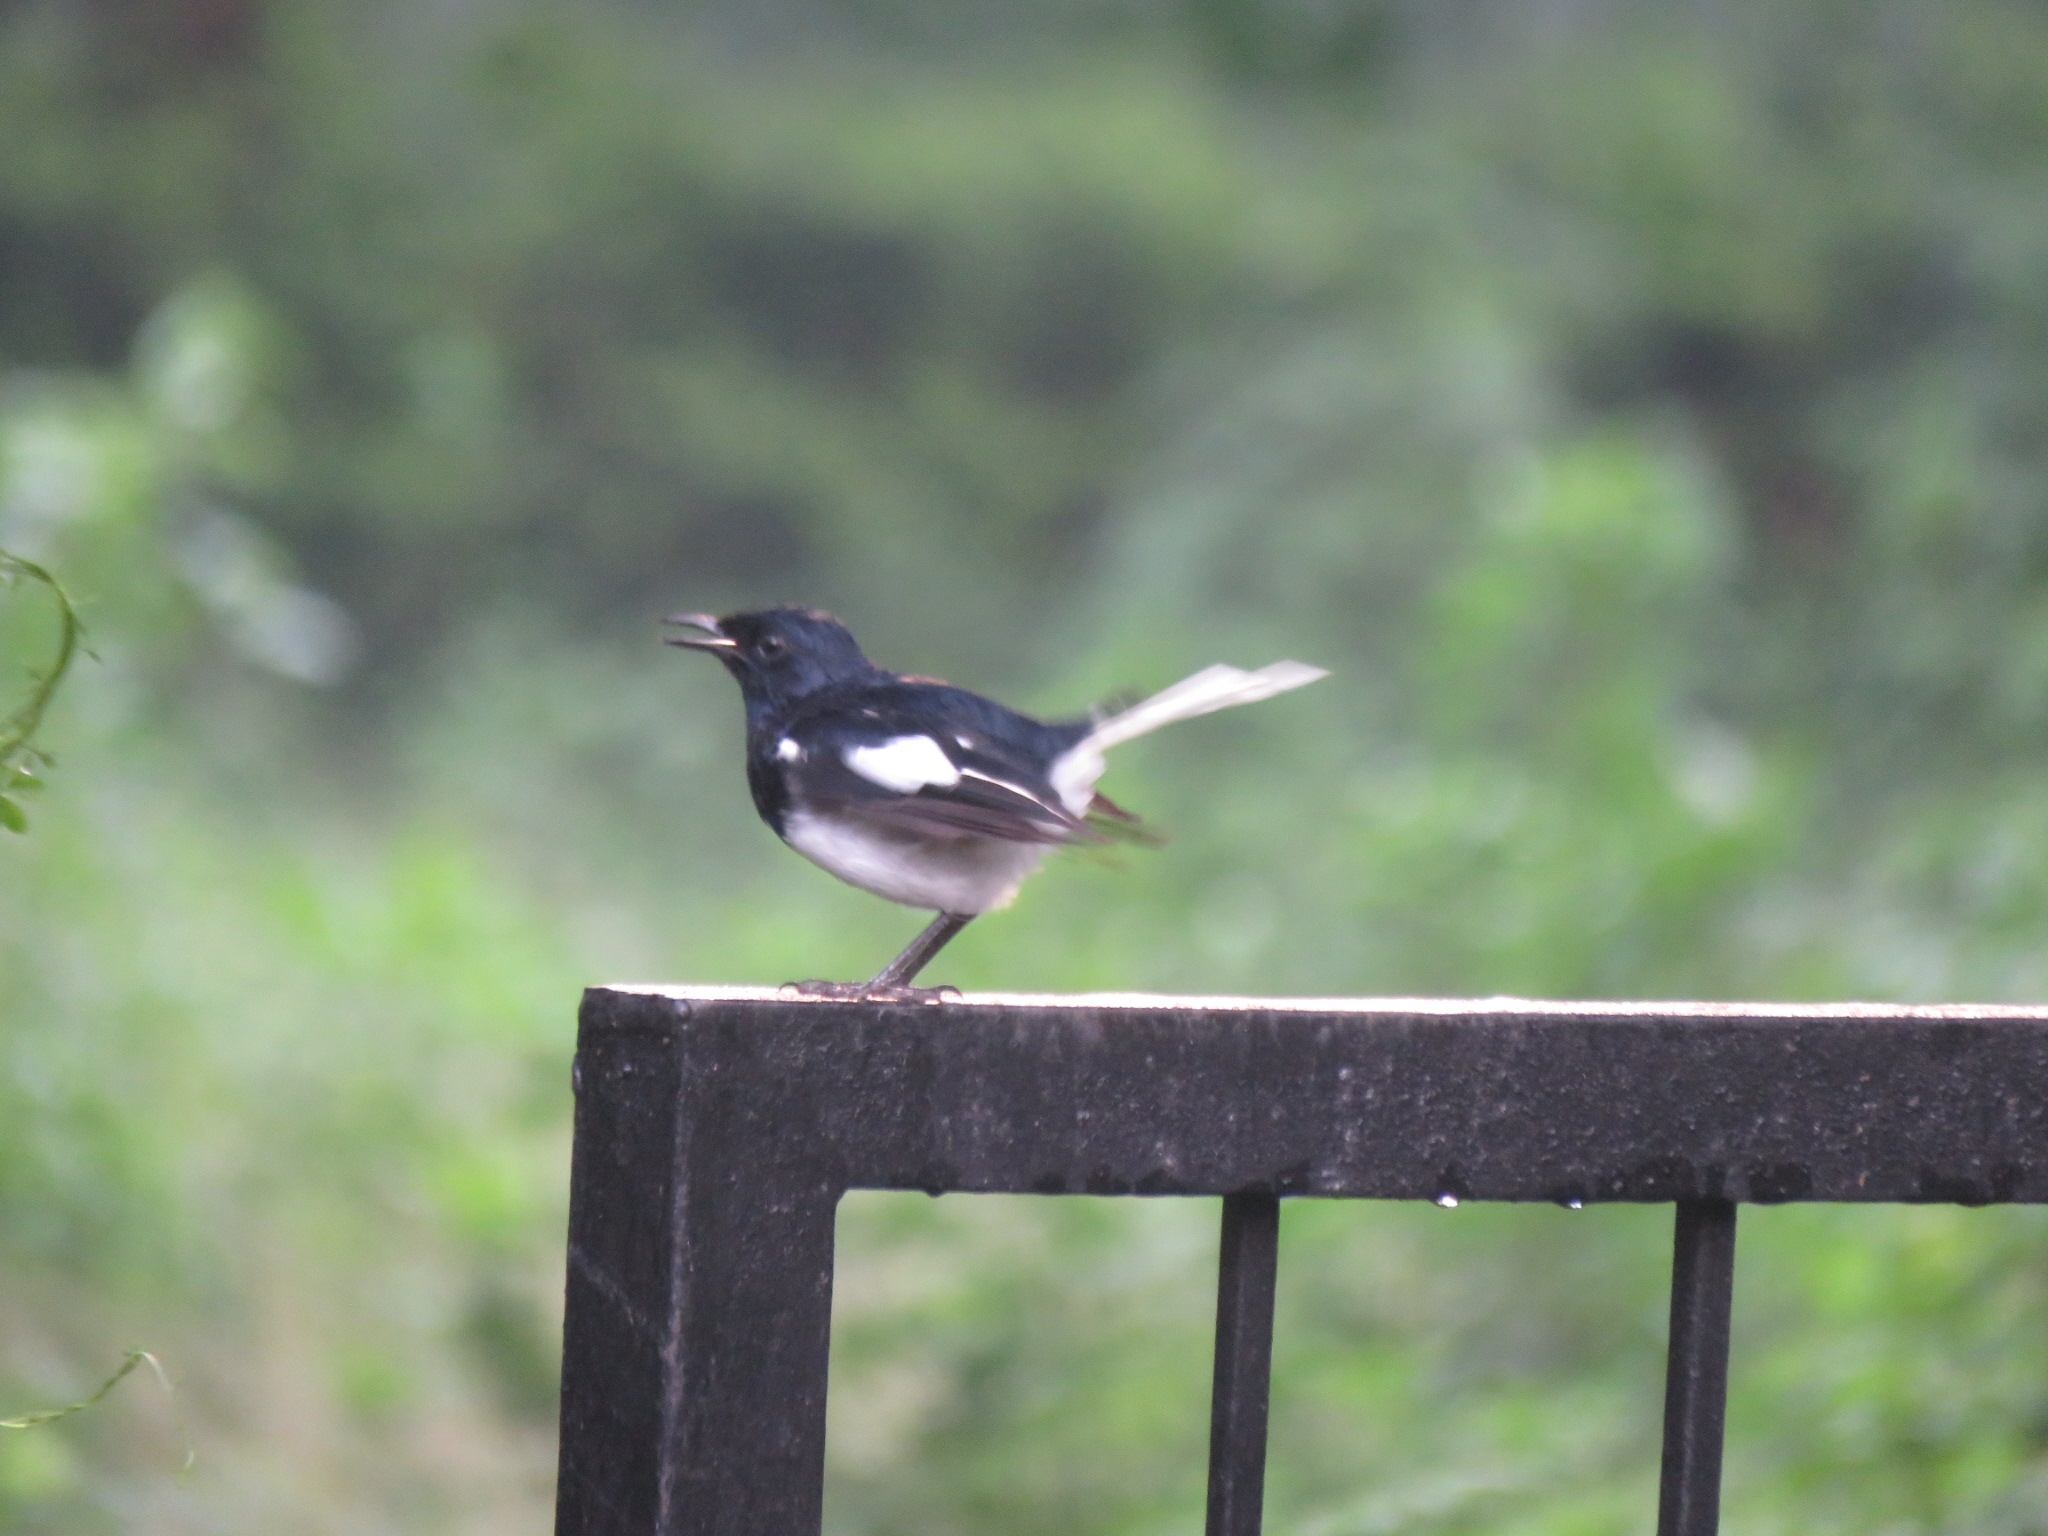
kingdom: Animalia
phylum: Chordata
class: Aves
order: Passeriformes
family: Muscicapidae
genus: Copsychus
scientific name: Copsychus saularis
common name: Oriental magpie-robin
